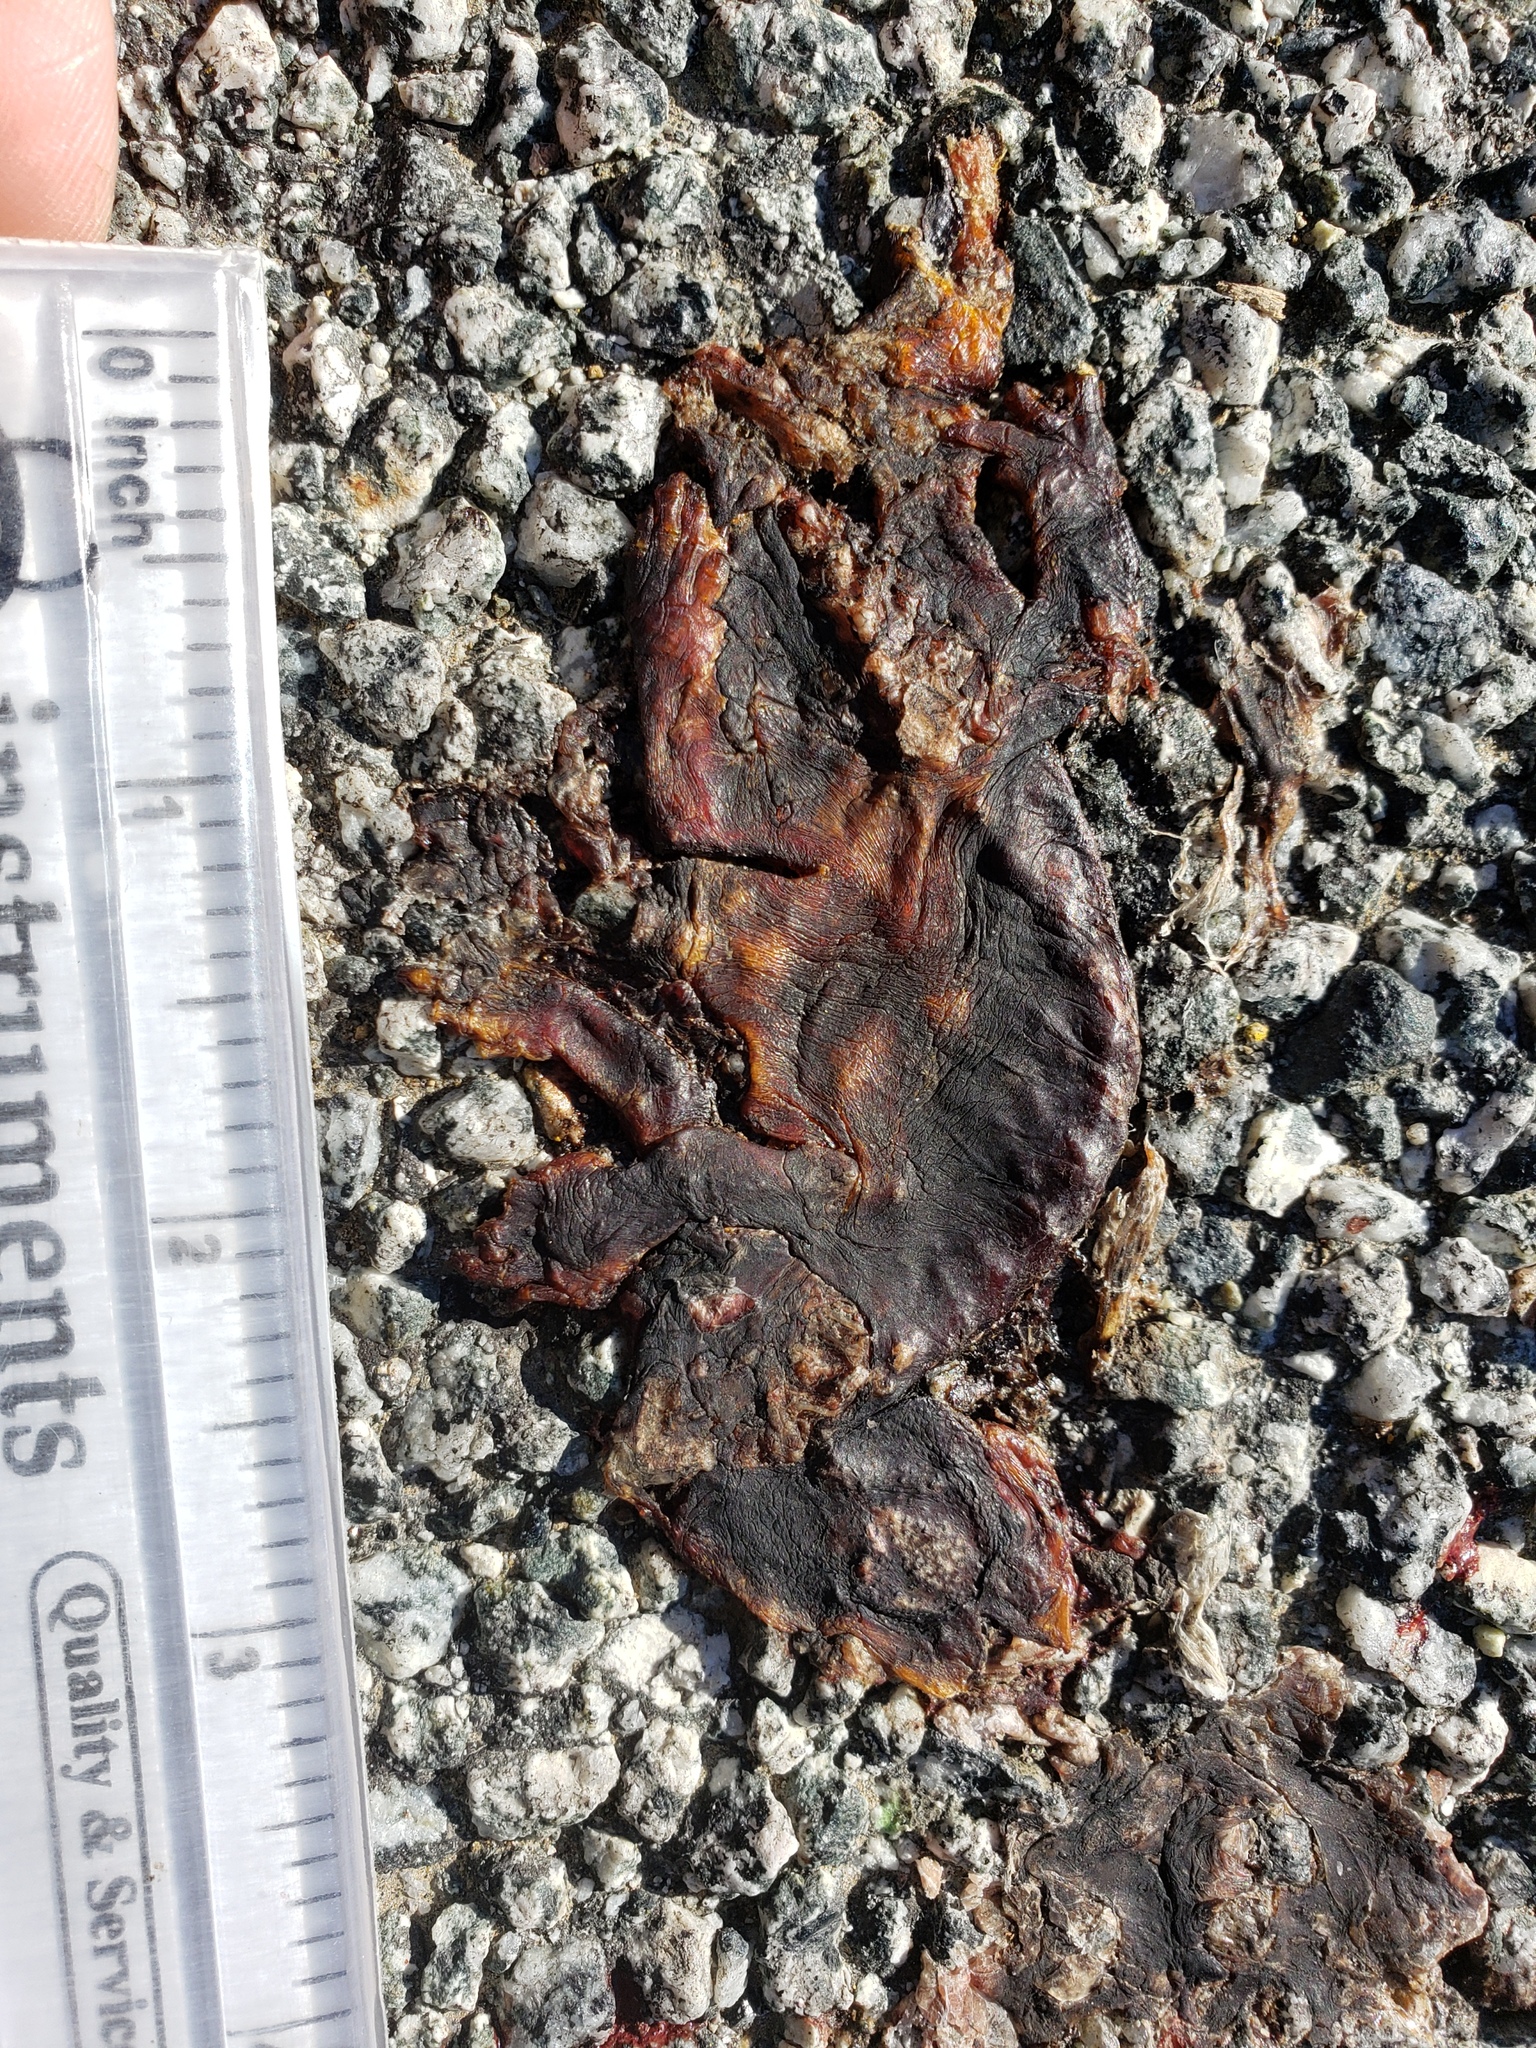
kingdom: Animalia
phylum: Chordata
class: Amphibia
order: Caudata
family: Salamandridae
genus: Taricha
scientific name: Taricha
